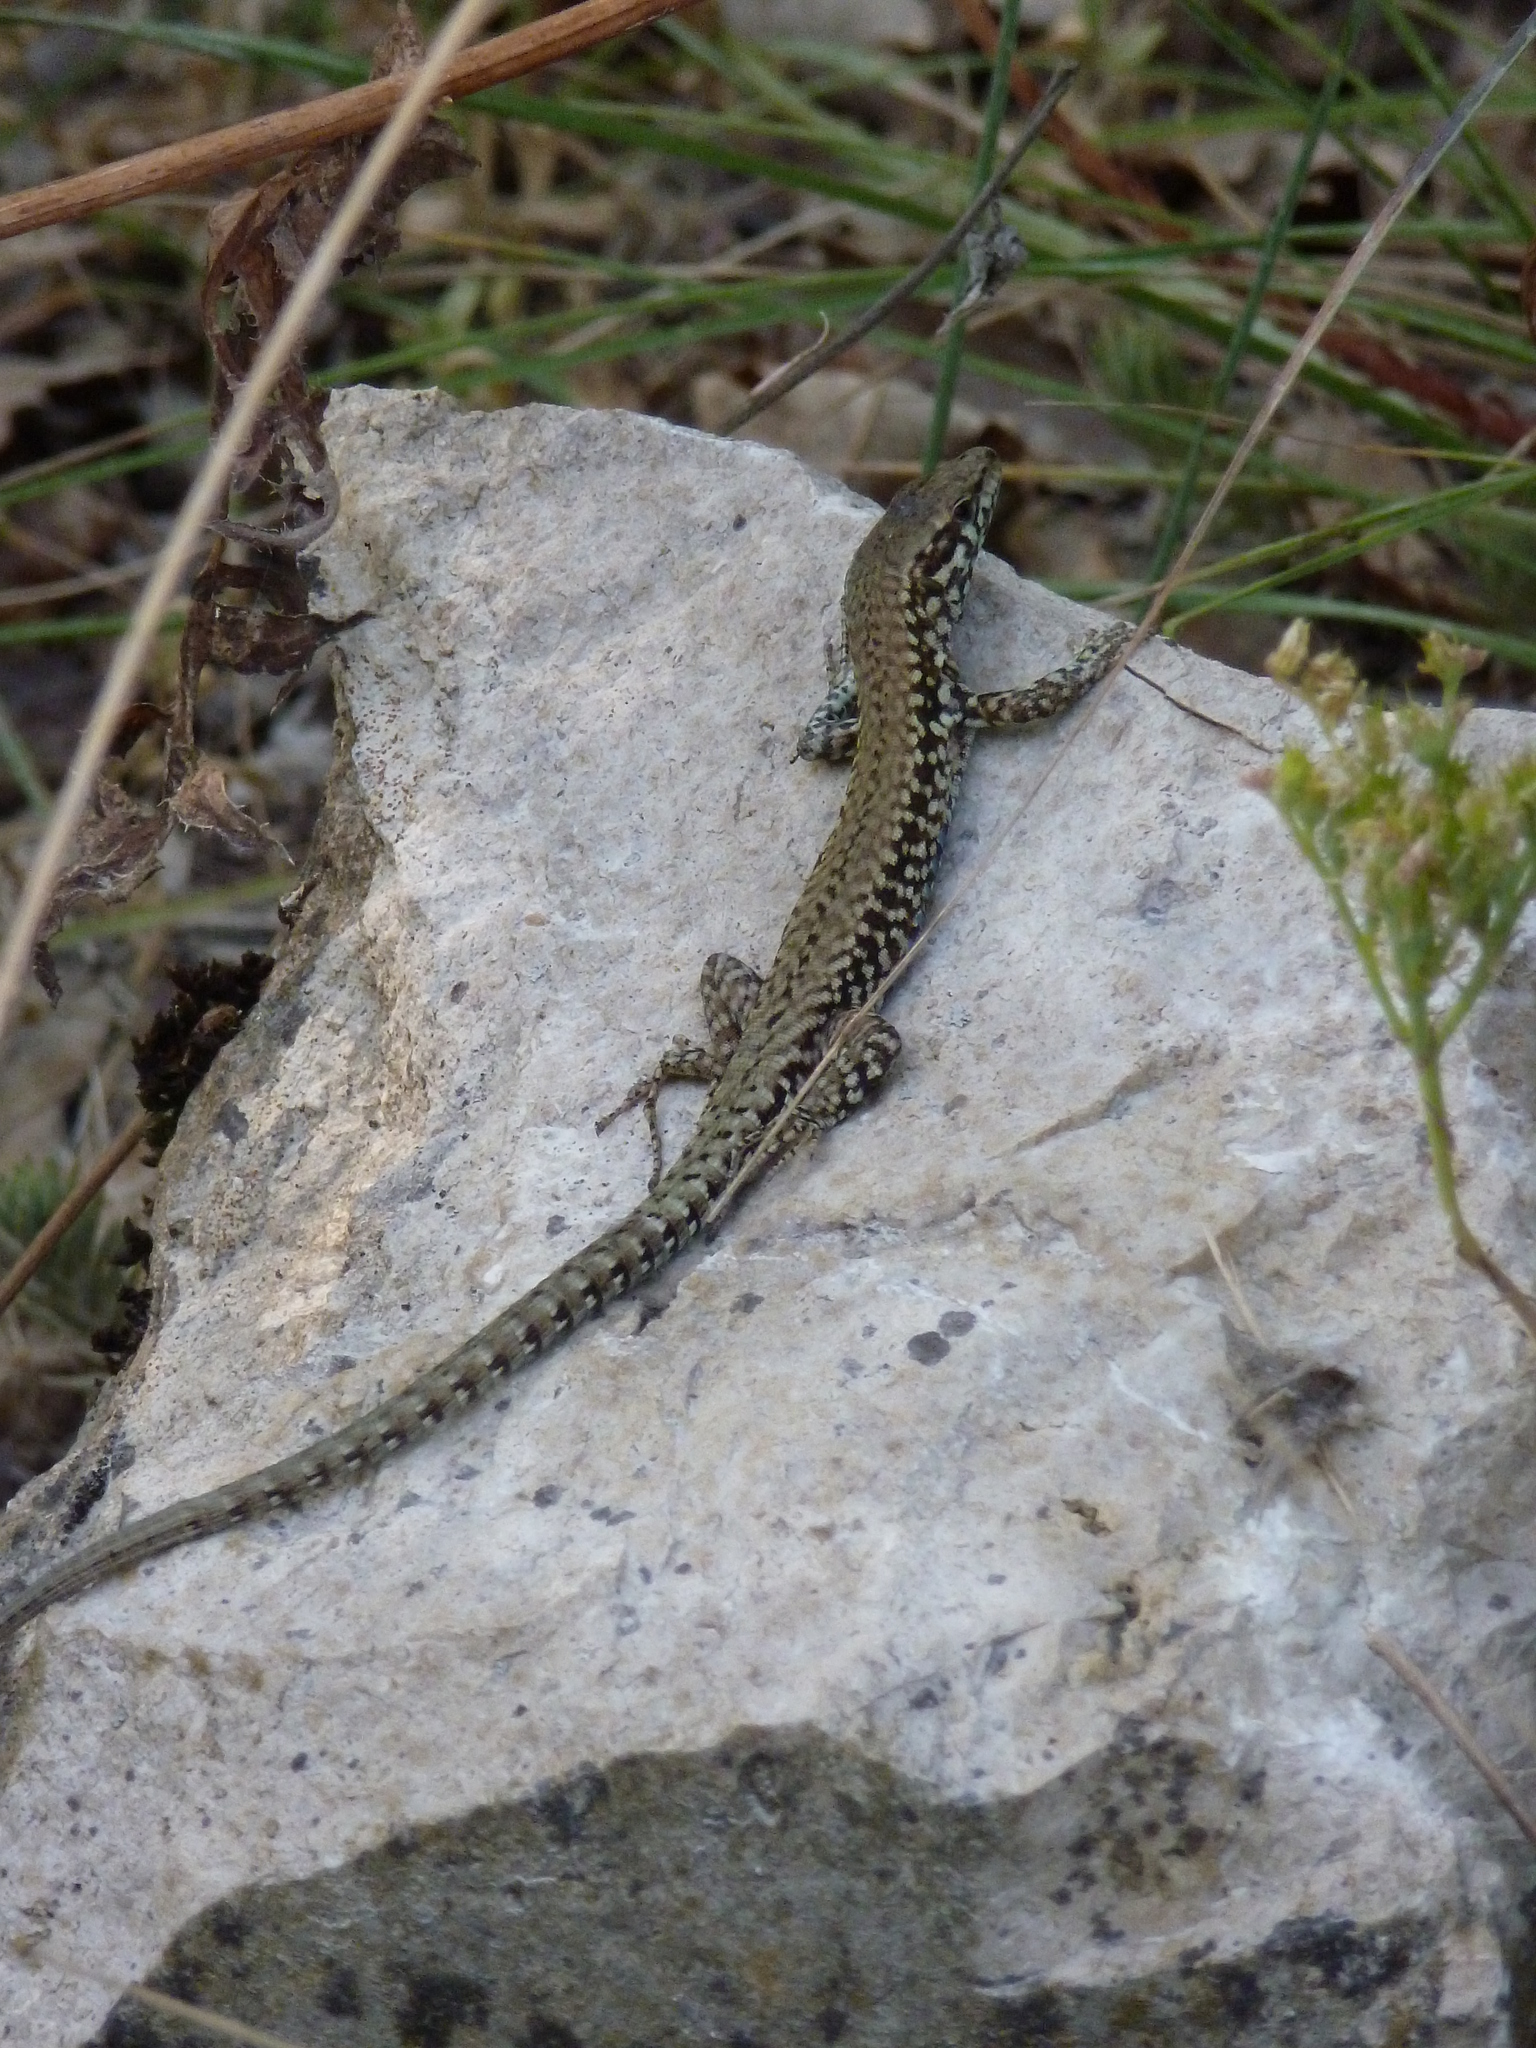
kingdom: Animalia
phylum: Chordata
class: Squamata
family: Lacertidae
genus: Podarcis
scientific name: Podarcis muralis
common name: Common wall lizard
